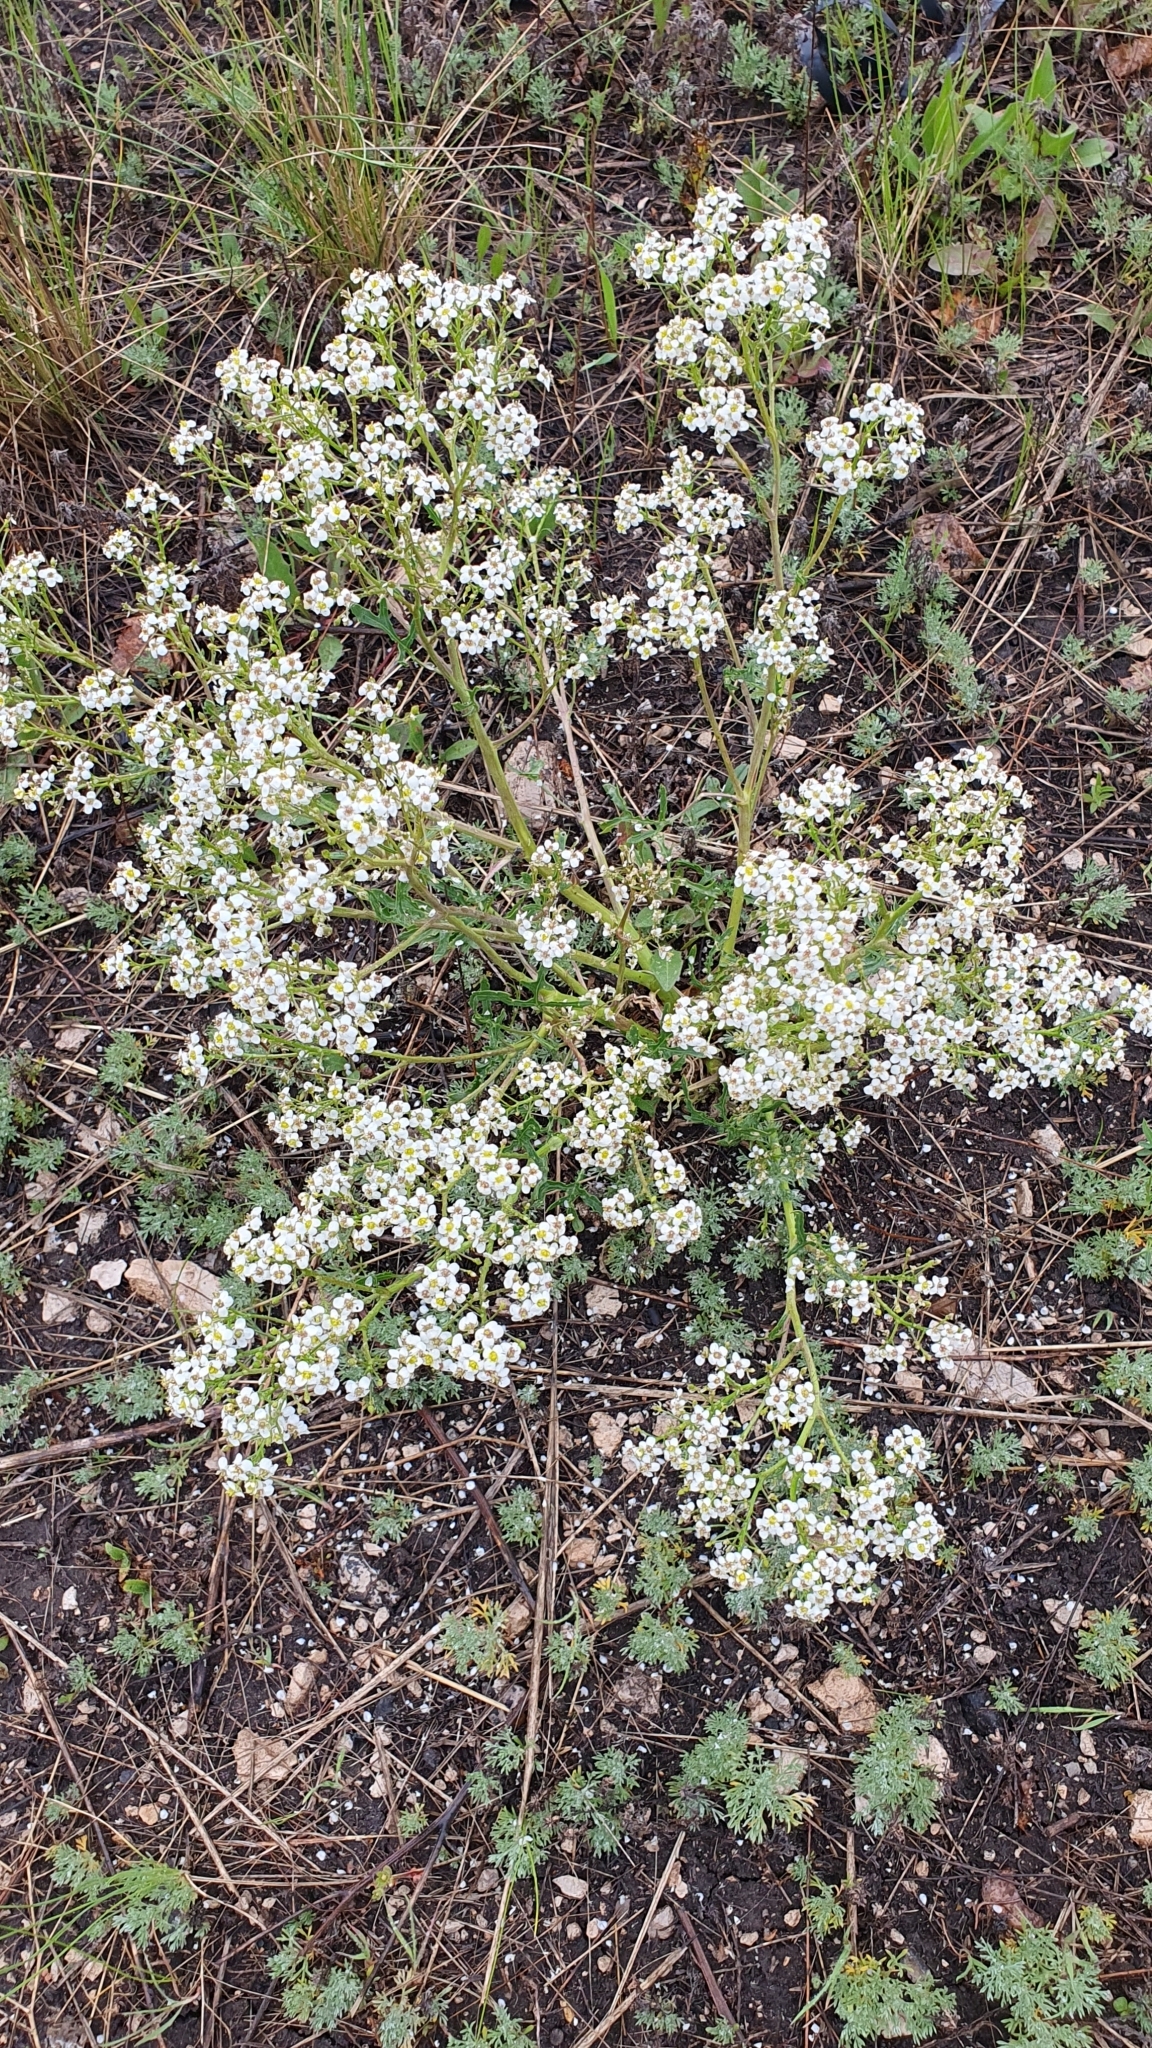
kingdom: Plantae
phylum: Tracheophyta
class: Magnoliopsida
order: Brassicales
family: Brassicaceae
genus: Crambe
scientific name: Crambe tataria
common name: Tartarian breadplant
